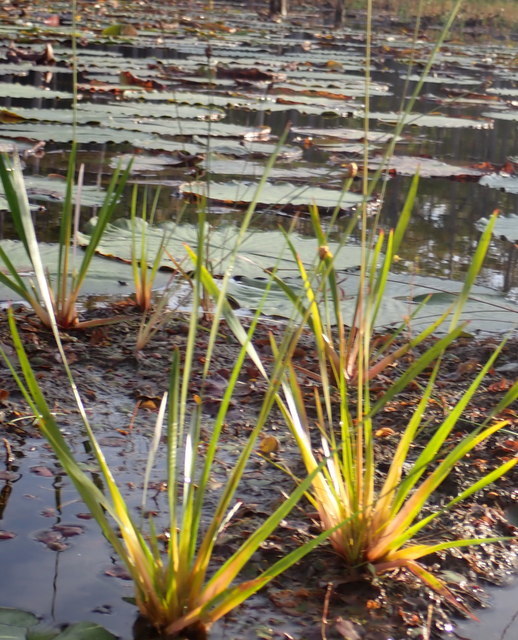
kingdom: Plantae
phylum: Tracheophyta
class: Liliopsida
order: Poales
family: Xyridaceae
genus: Xyris
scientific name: Xyris fimbriata
